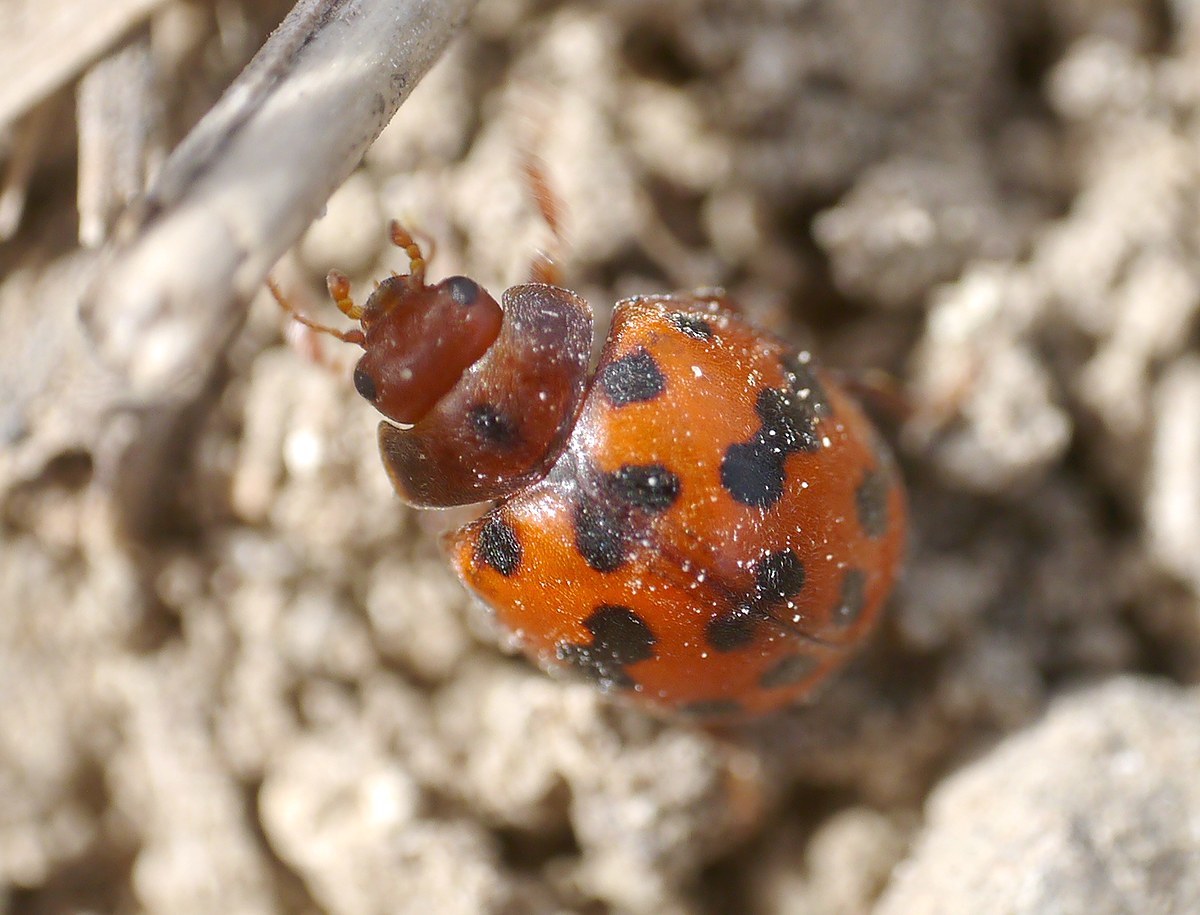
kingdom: Animalia
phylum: Arthropoda
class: Insecta
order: Coleoptera
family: Coccinellidae
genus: Subcoccinella
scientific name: Subcoccinella vigintiquatuorpunctata
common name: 24-spot ladybird
